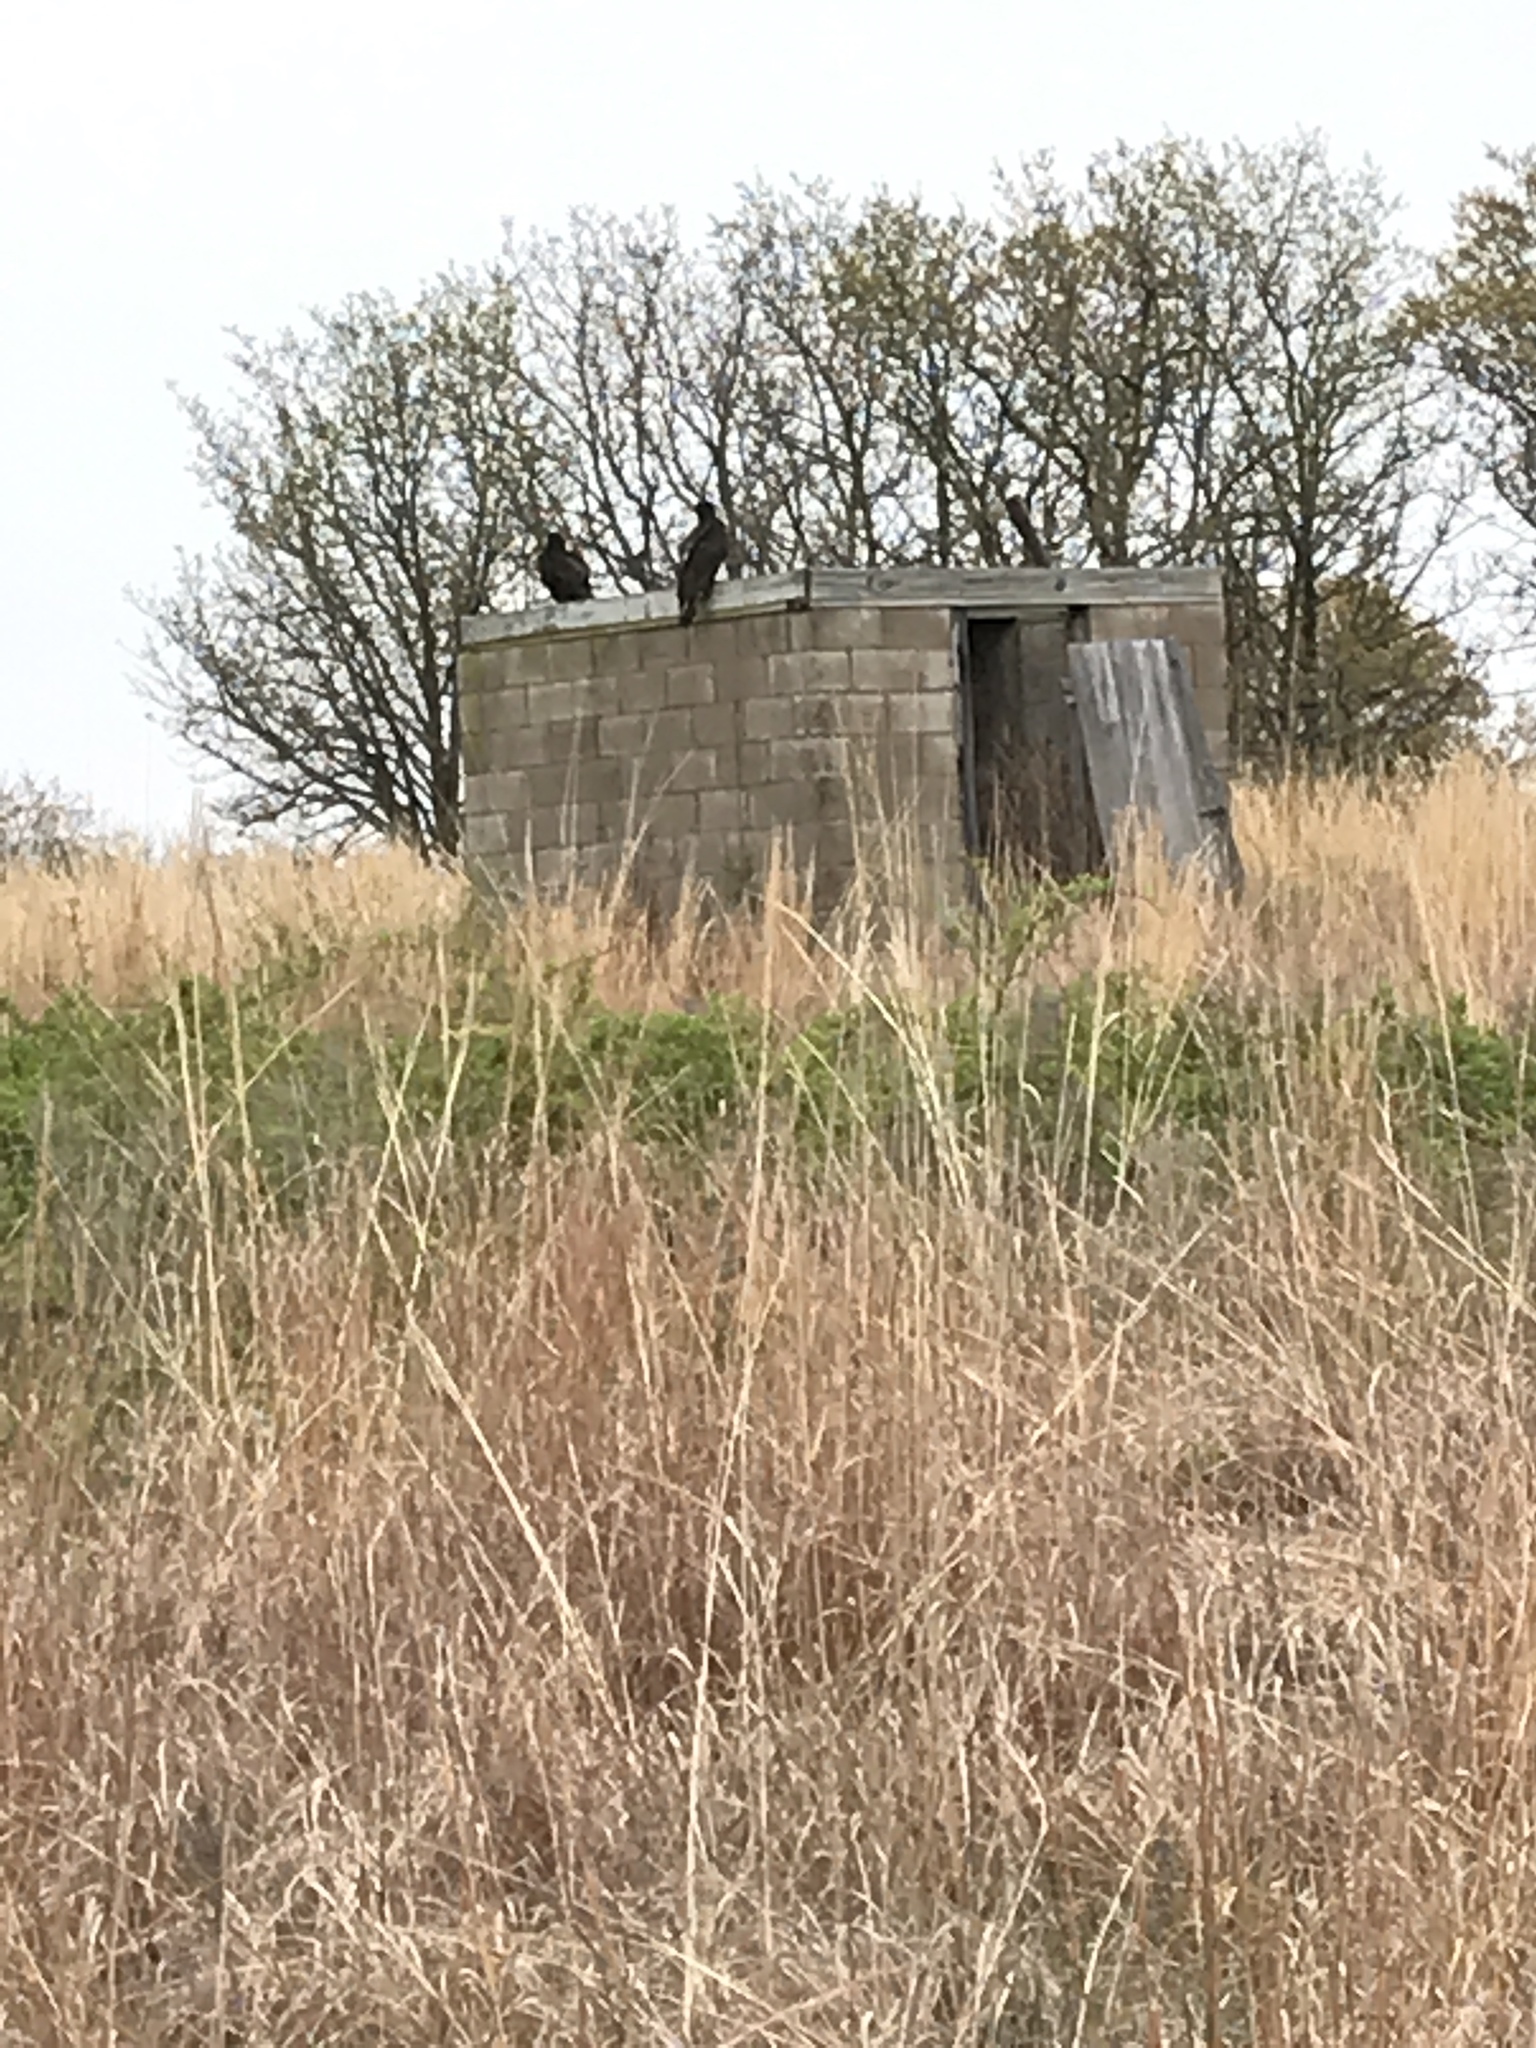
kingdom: Animalia
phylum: Chordata
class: Aves
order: Accipitriformes
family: Cathartidae
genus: Cathartes
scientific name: Cathartes aura
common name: Turkey vulture
